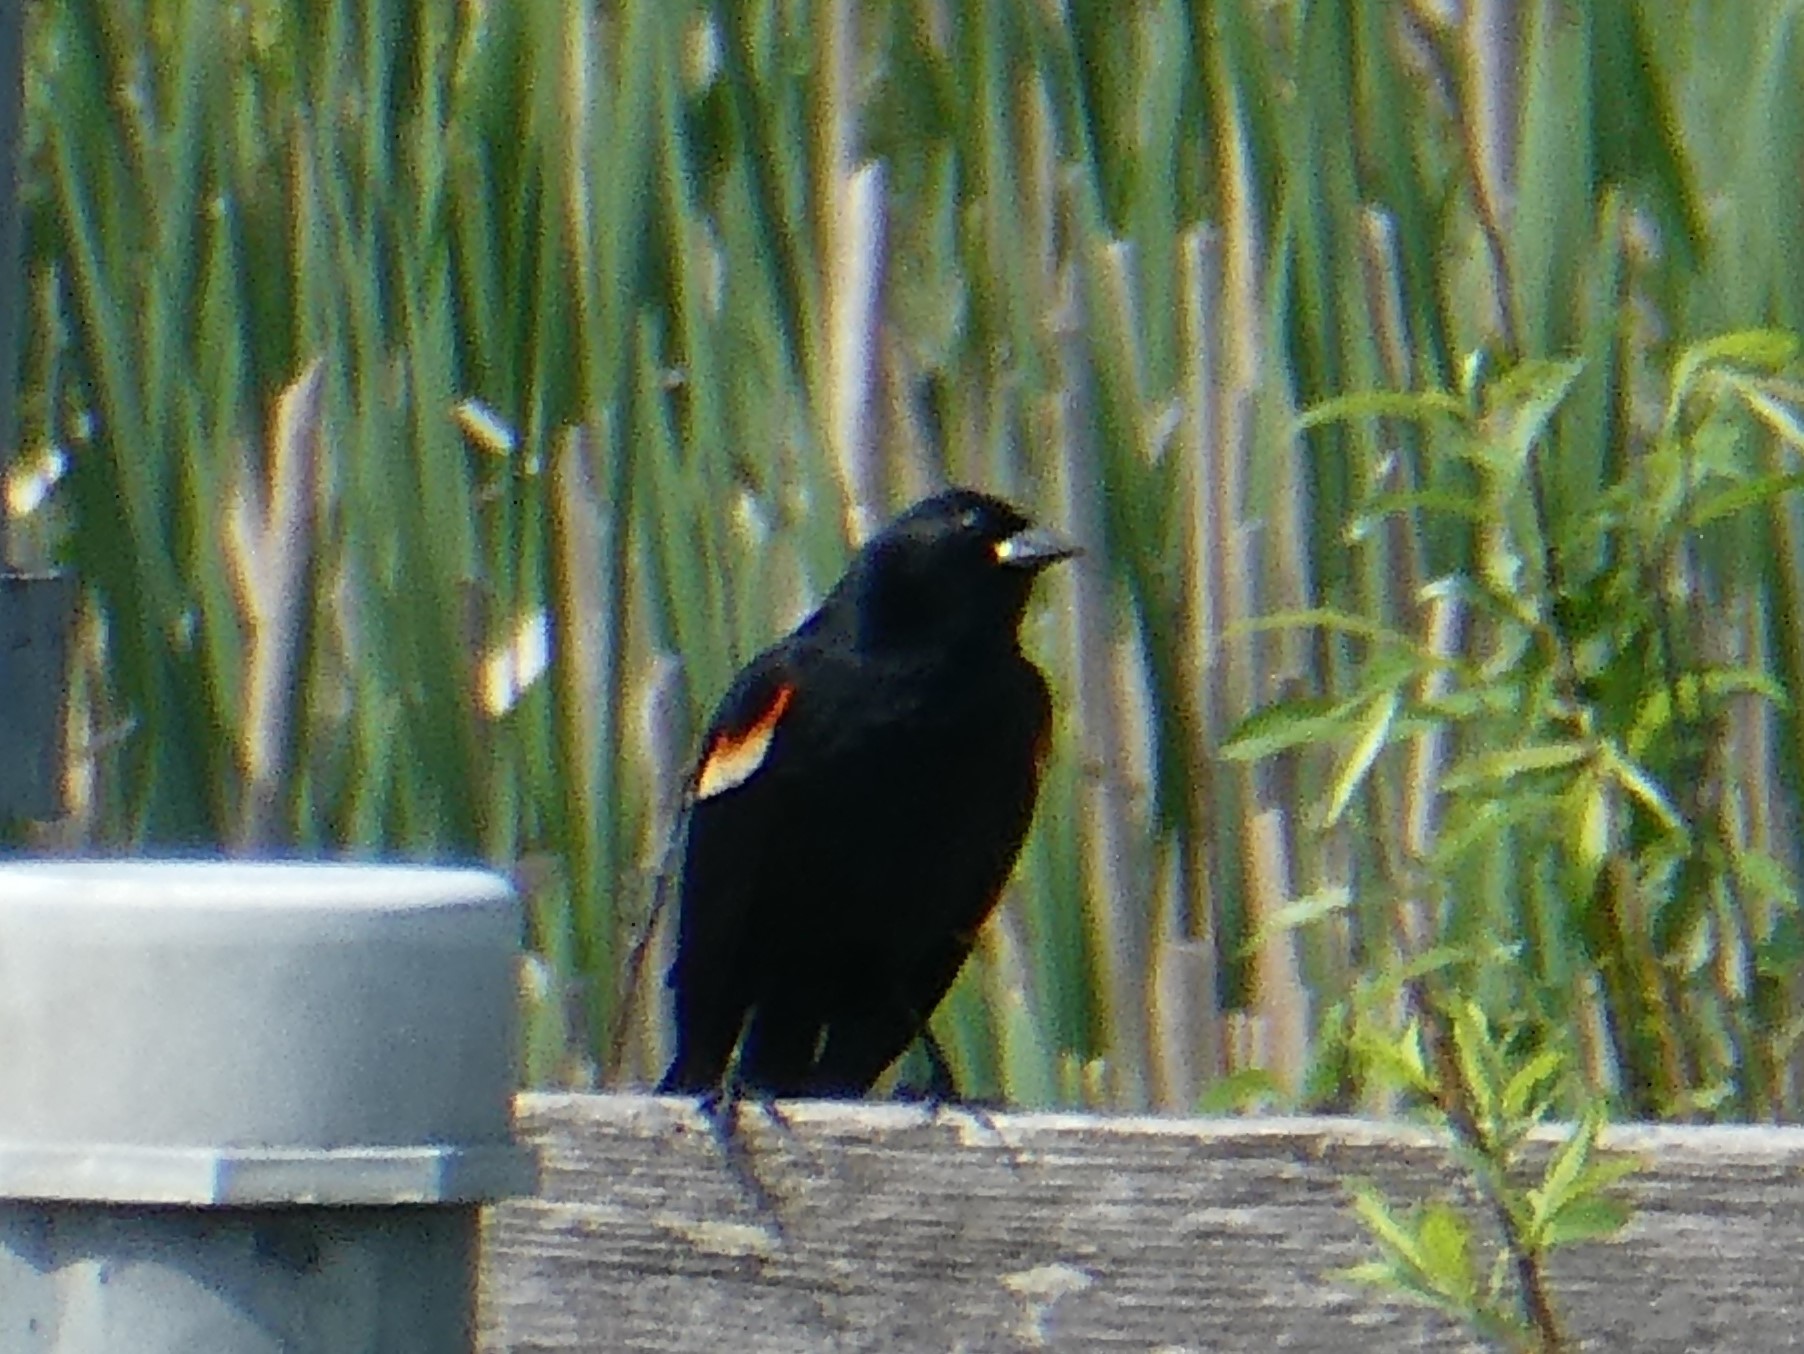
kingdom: Animalia
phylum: Chordata
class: Aves
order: Passeriformes
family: Icteridae
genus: Agelaius
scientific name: Agelaius phoeniceus
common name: Red-winged blackbird
